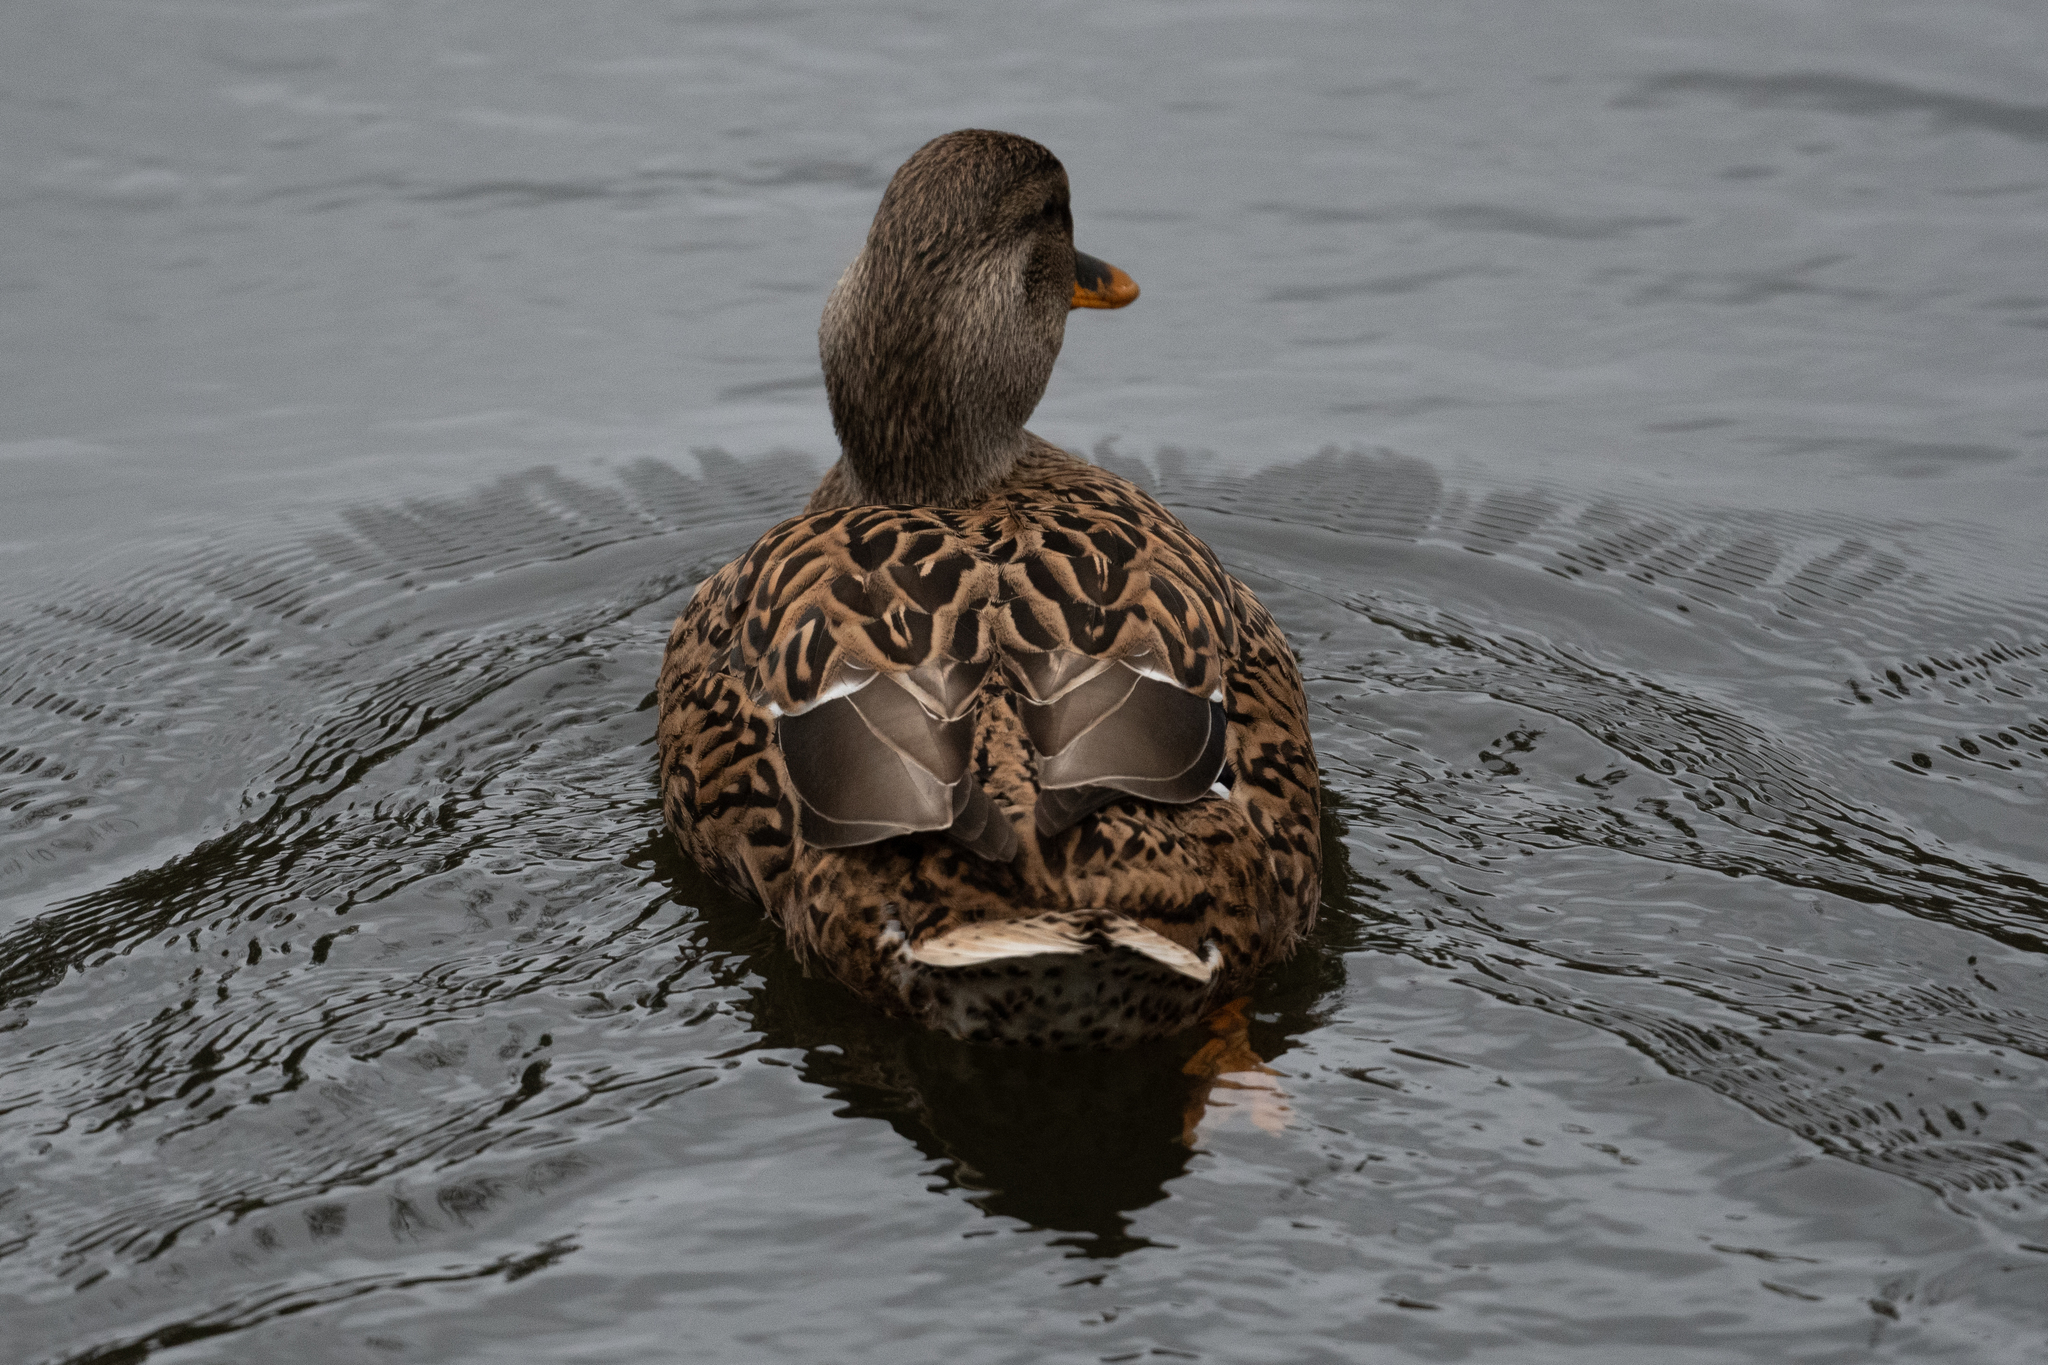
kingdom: Animalia
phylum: Chordata
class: Aves
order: Anseriformes
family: Anatidae
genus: Anas
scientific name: Anas platyrhynchos
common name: Mallard
